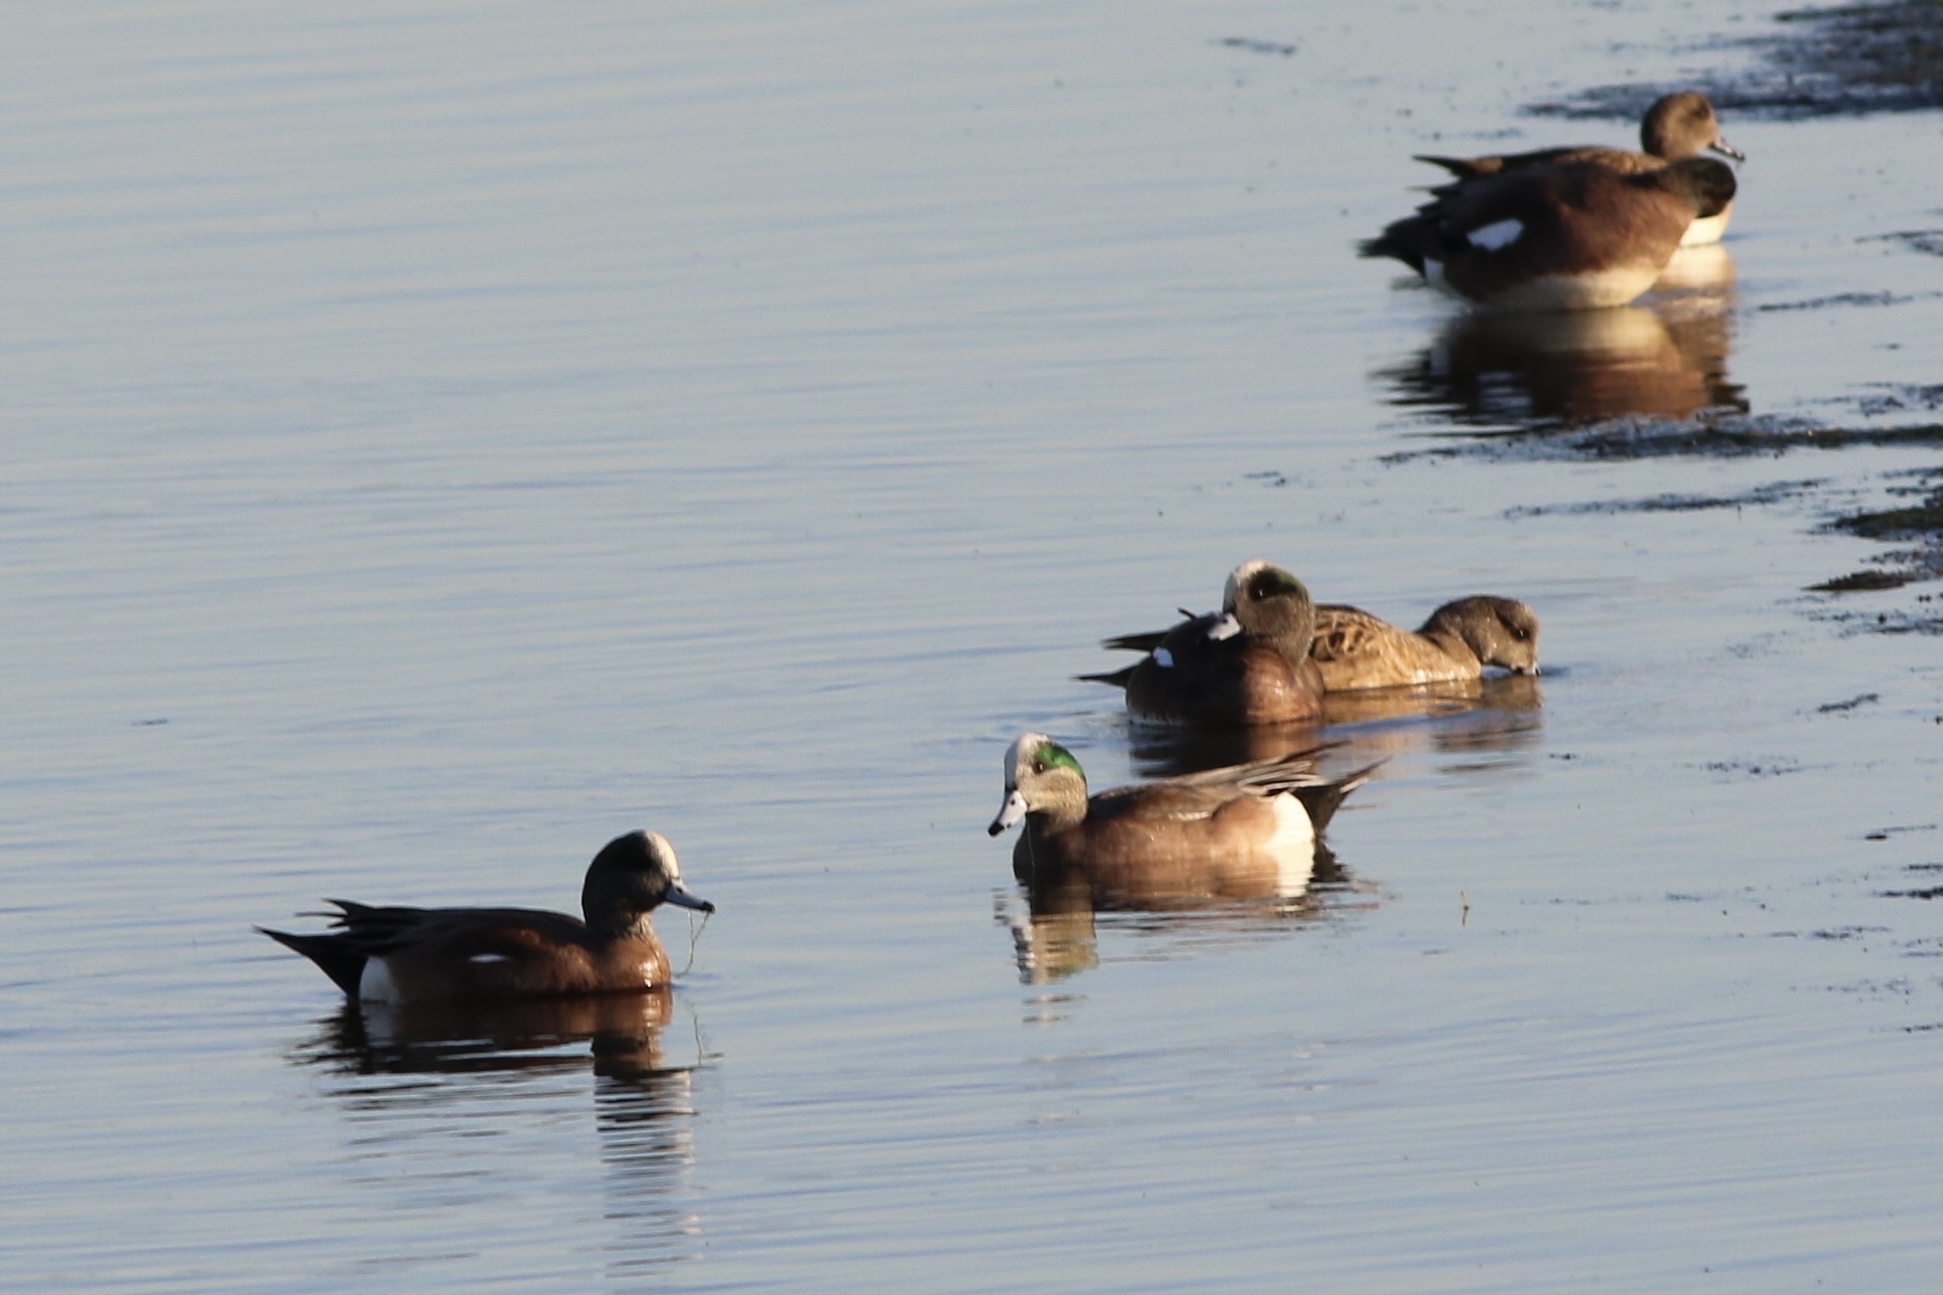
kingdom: Animalia
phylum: Chordata
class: Aves
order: Anseriformes
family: Anatidae
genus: Mareca
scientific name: Mareca americana
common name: American wigeon
